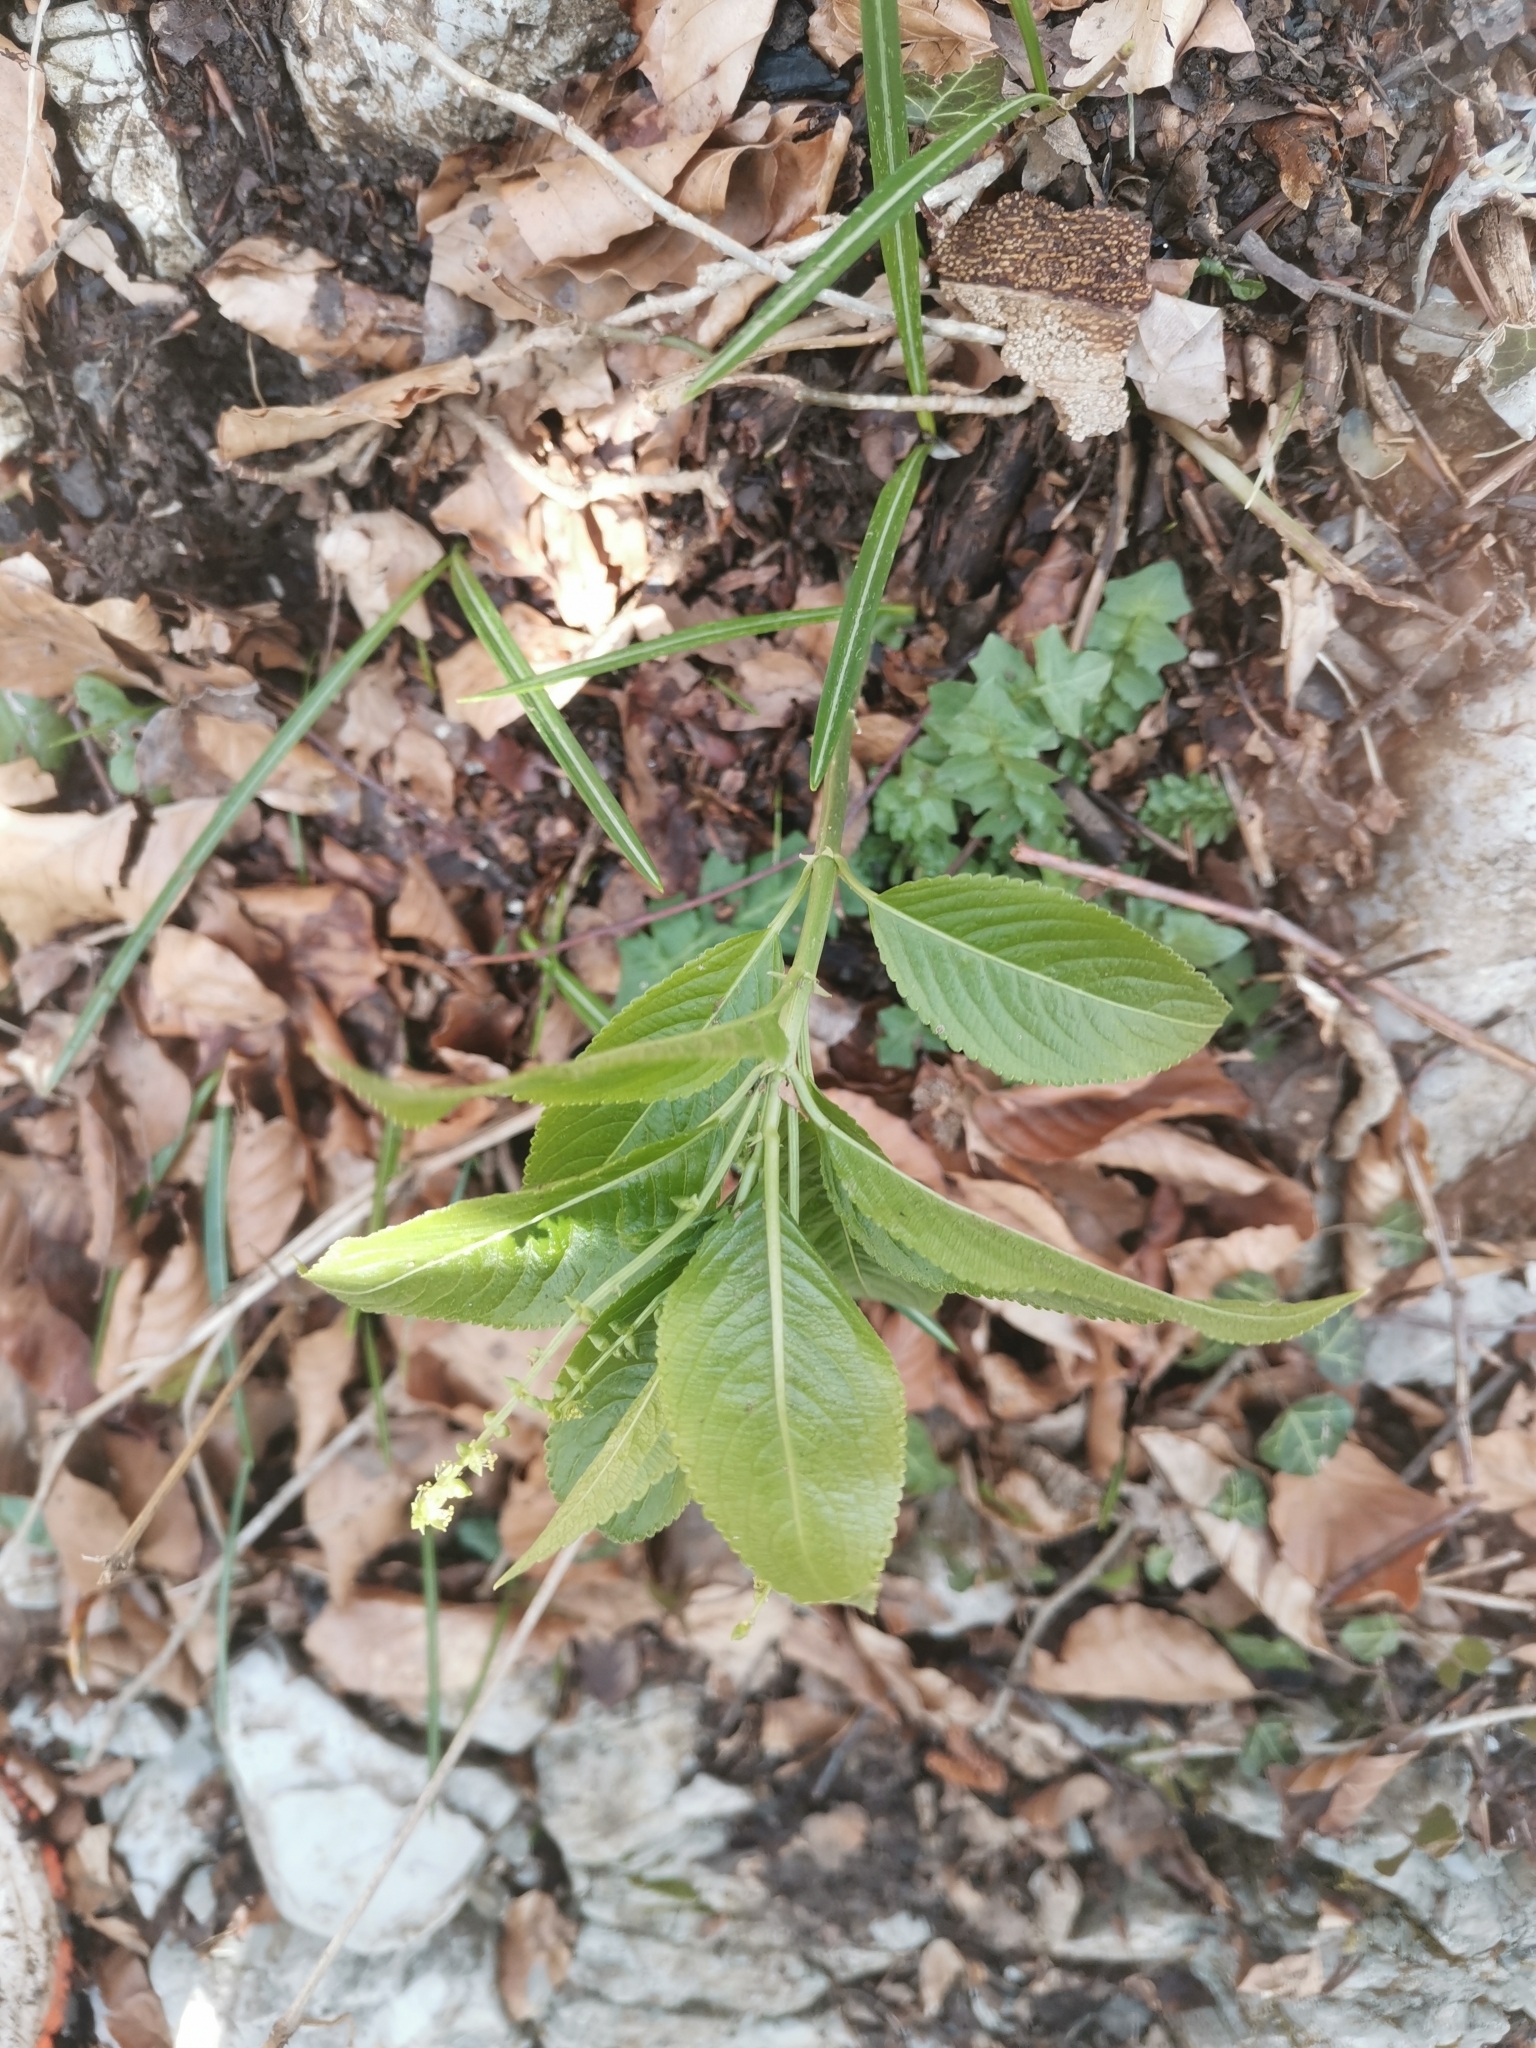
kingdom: Plantae
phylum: Tracheophyta
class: Magnoliopsida
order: Malpighiales
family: Euphorbiaceae
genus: Mercurialis
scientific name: Mercurialis perennis
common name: Dog mercury
